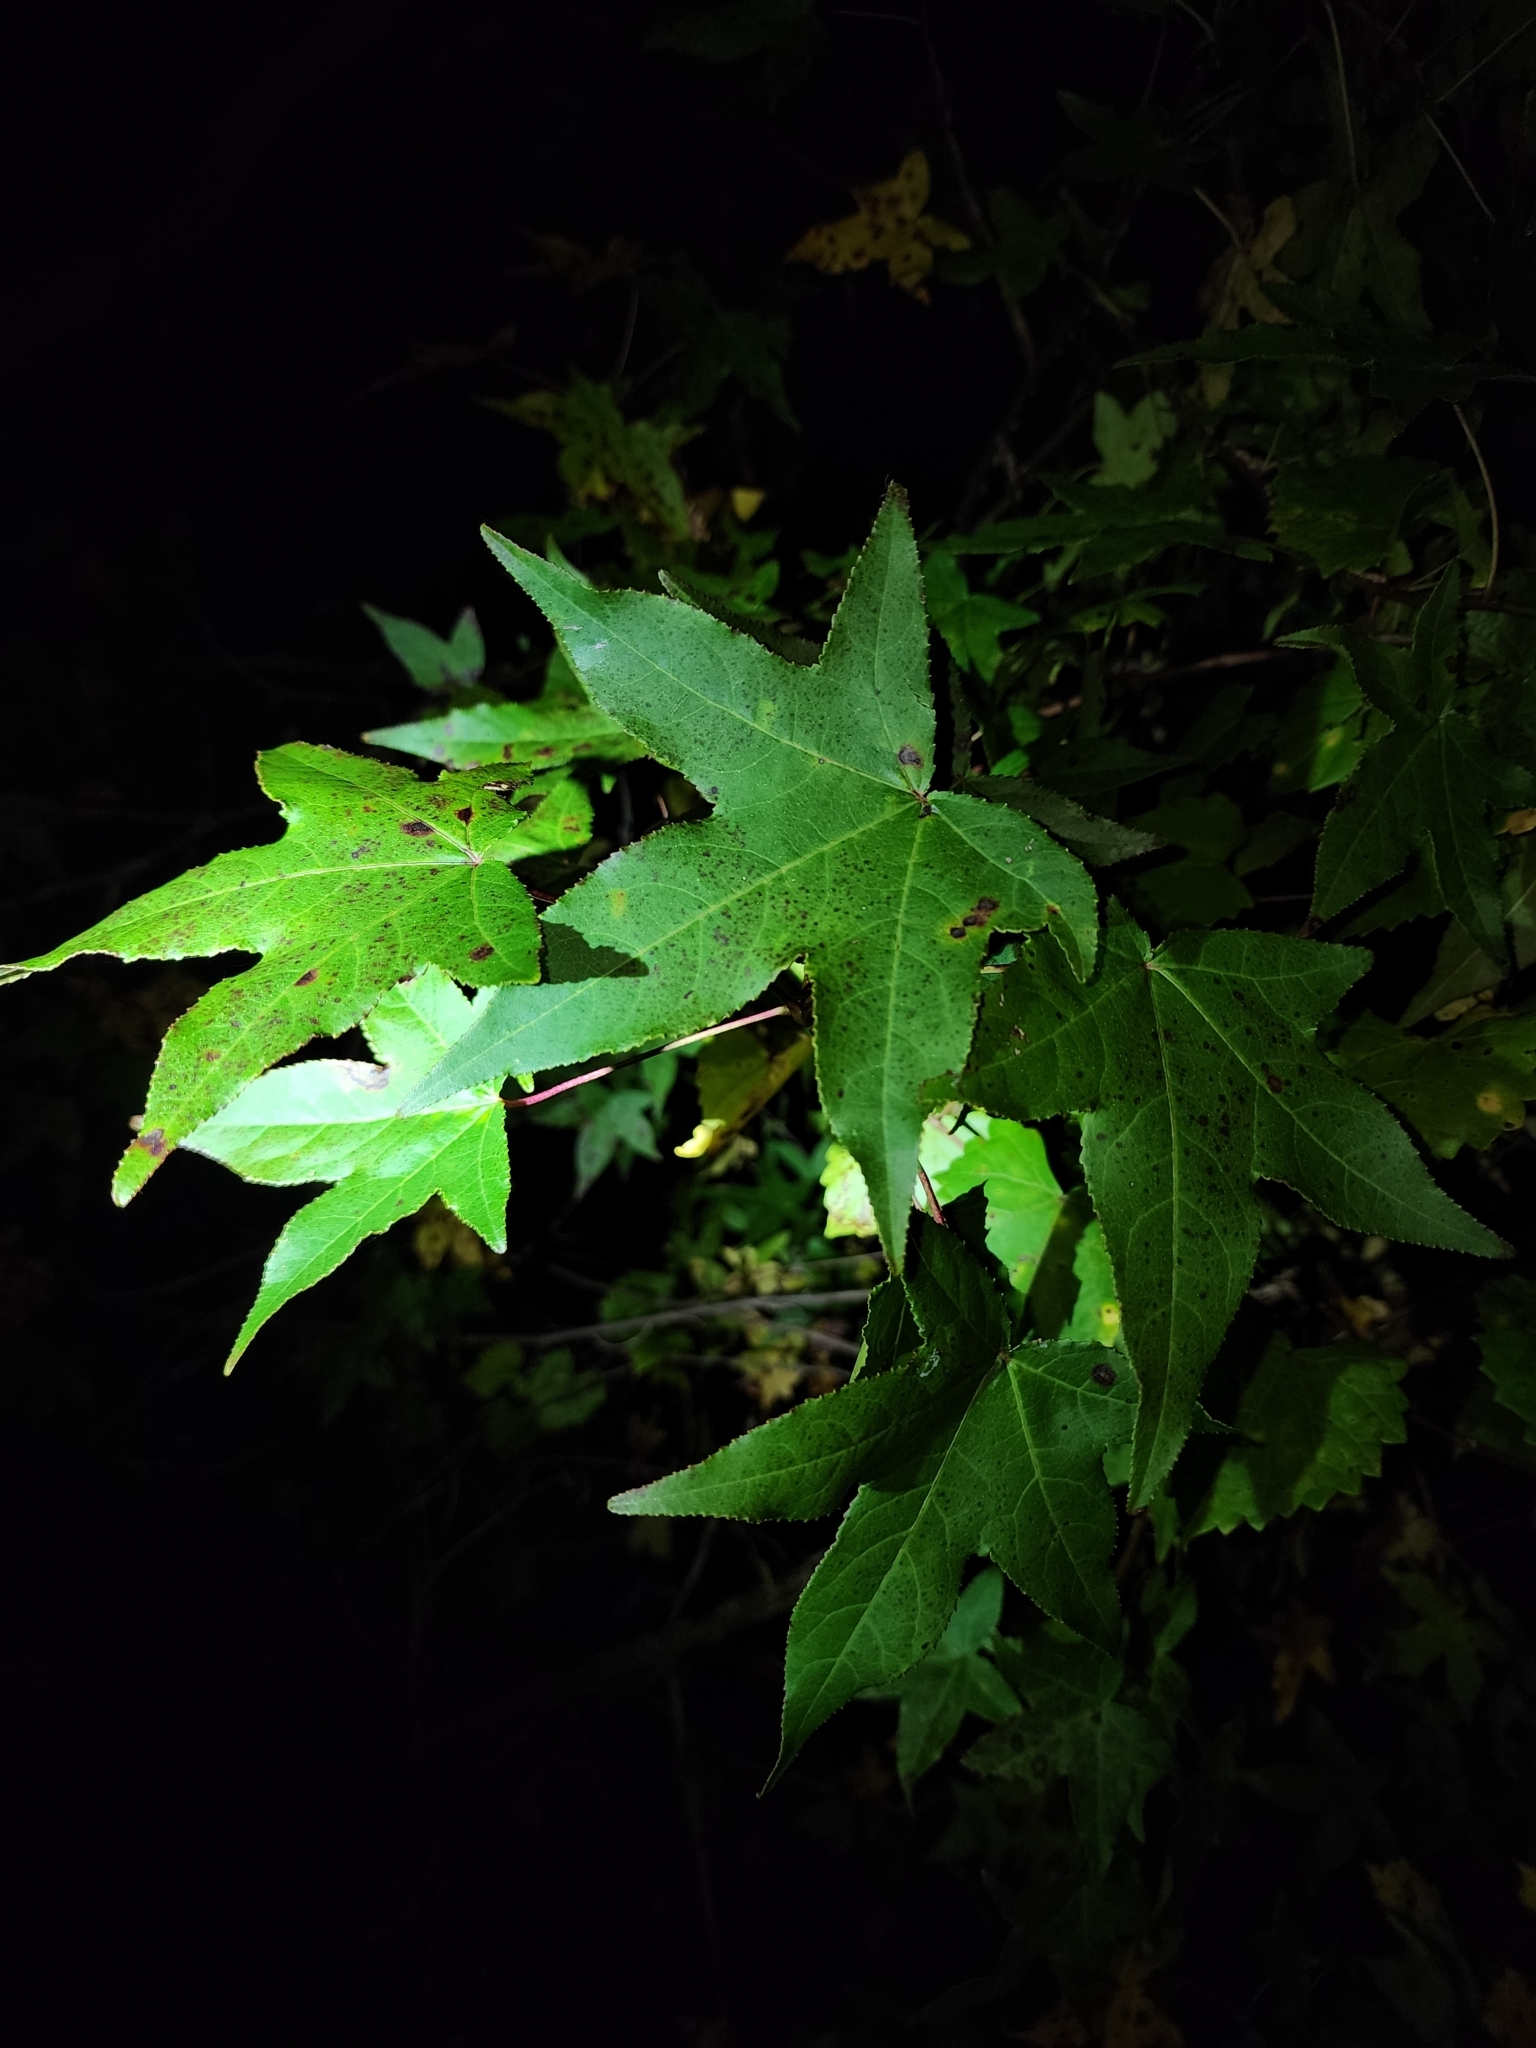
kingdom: Plantae
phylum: Tracheophyta
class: Magnoliopsida
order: Saxifragales
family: Altingiaceae
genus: Liquidambar
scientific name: Liquidambar styraciflua
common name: Sweet gum
